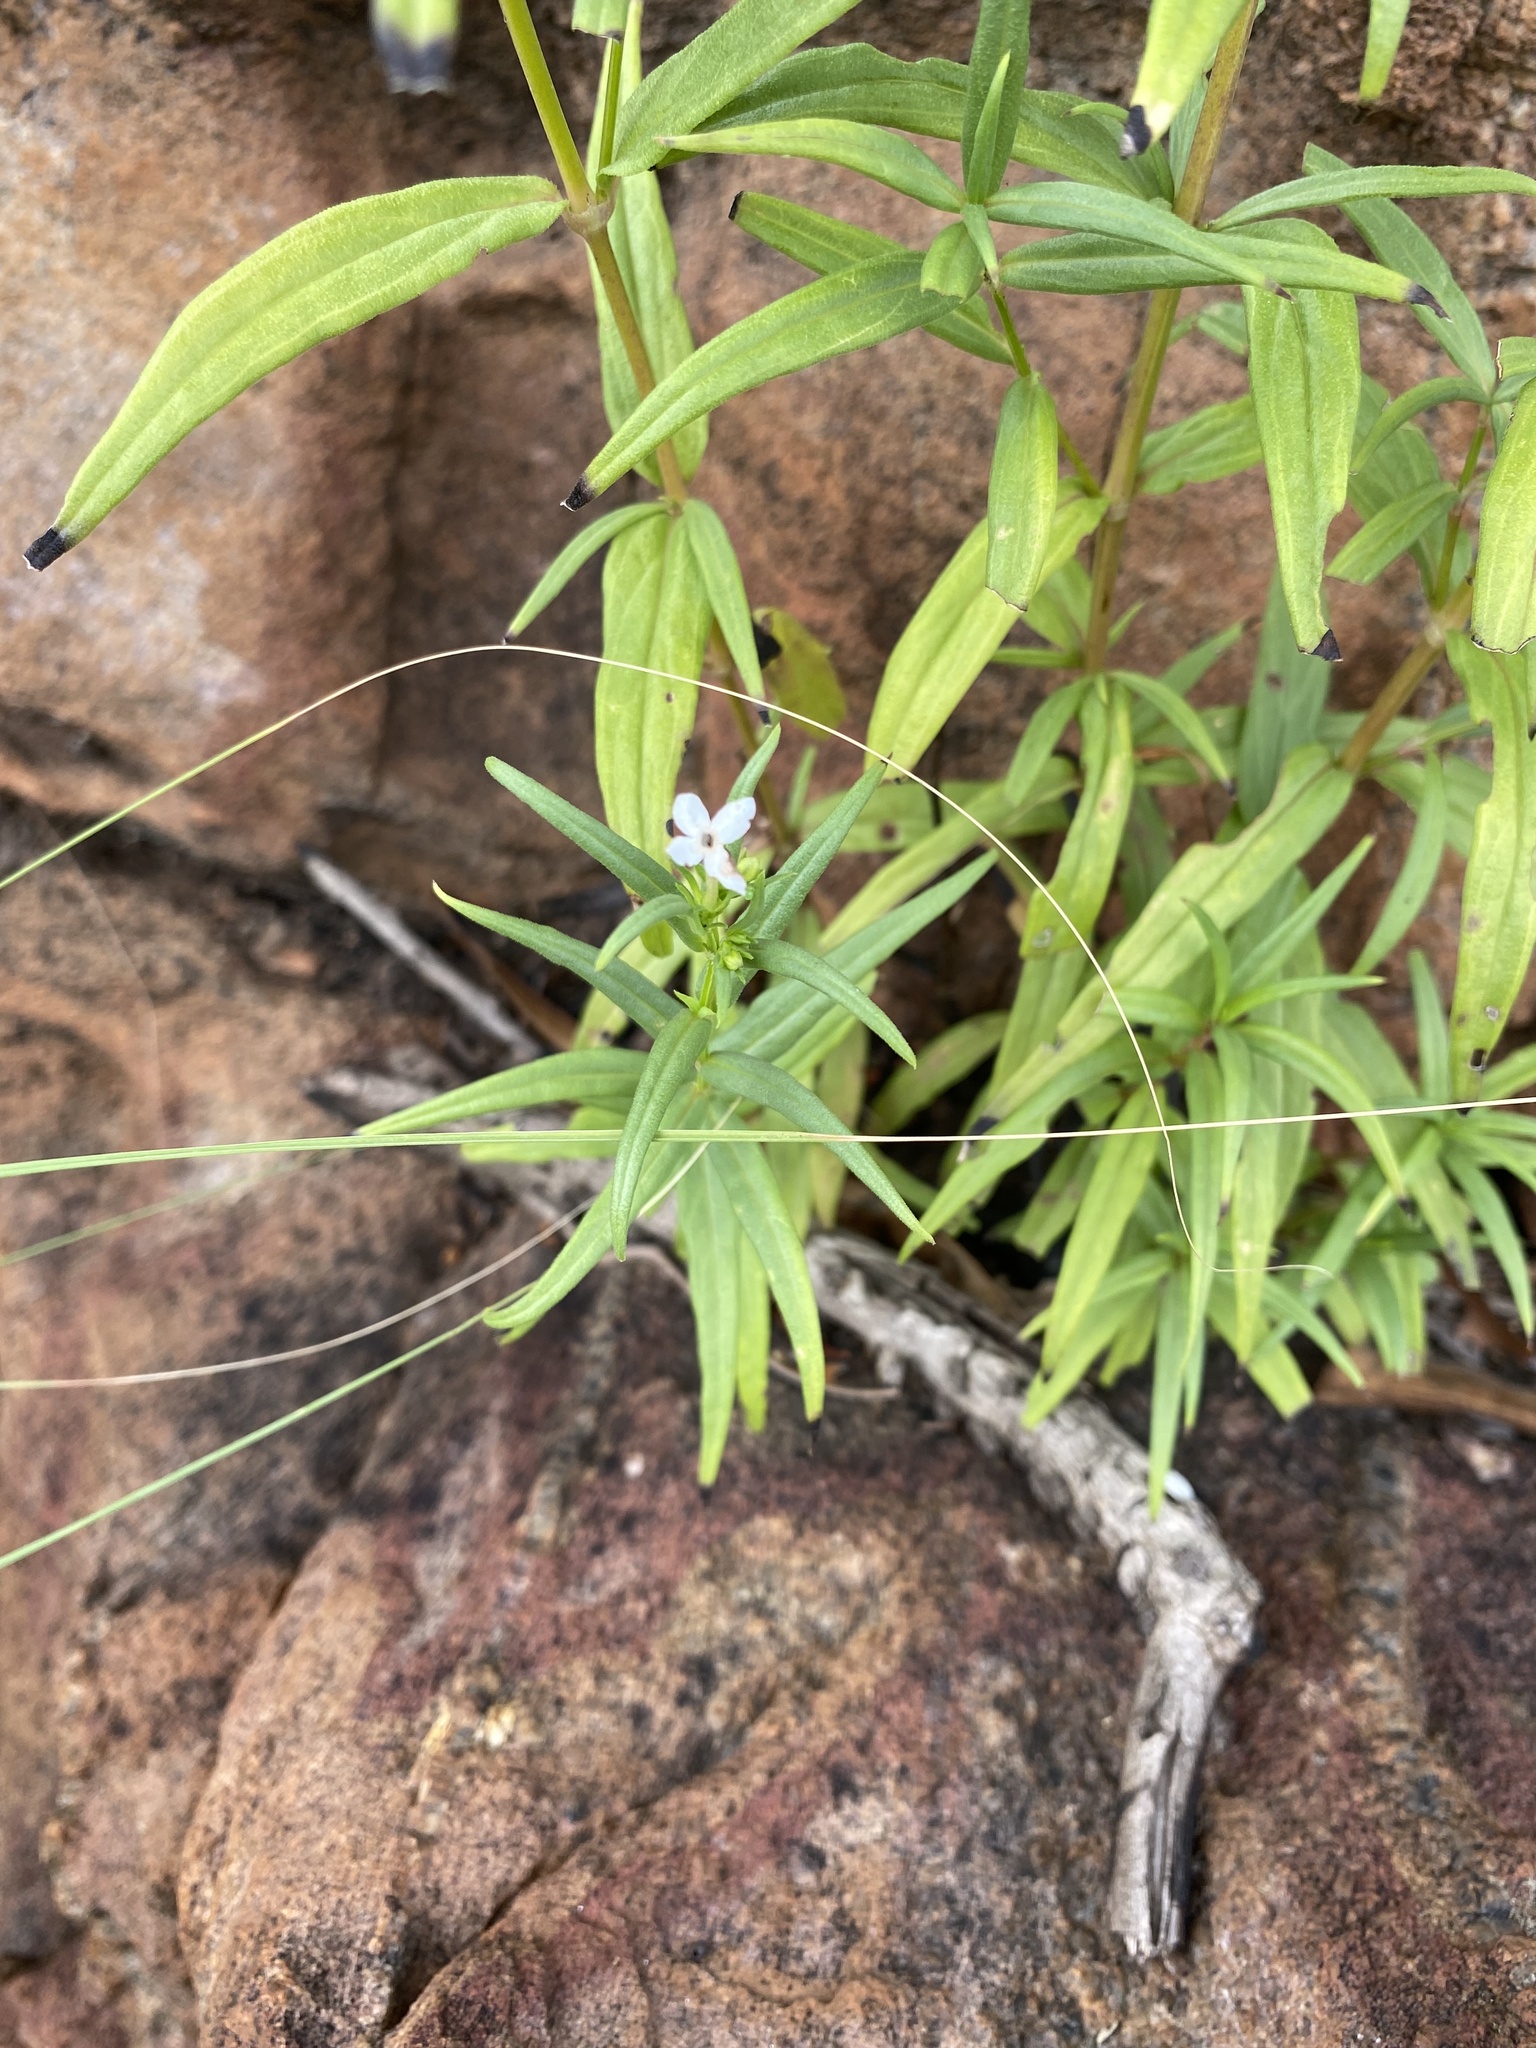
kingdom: Plantae
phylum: Tracheophyta
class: Magnoliopsida
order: Gentianales
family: Rubiaceae
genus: Conostomium
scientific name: Conostomium natalense
